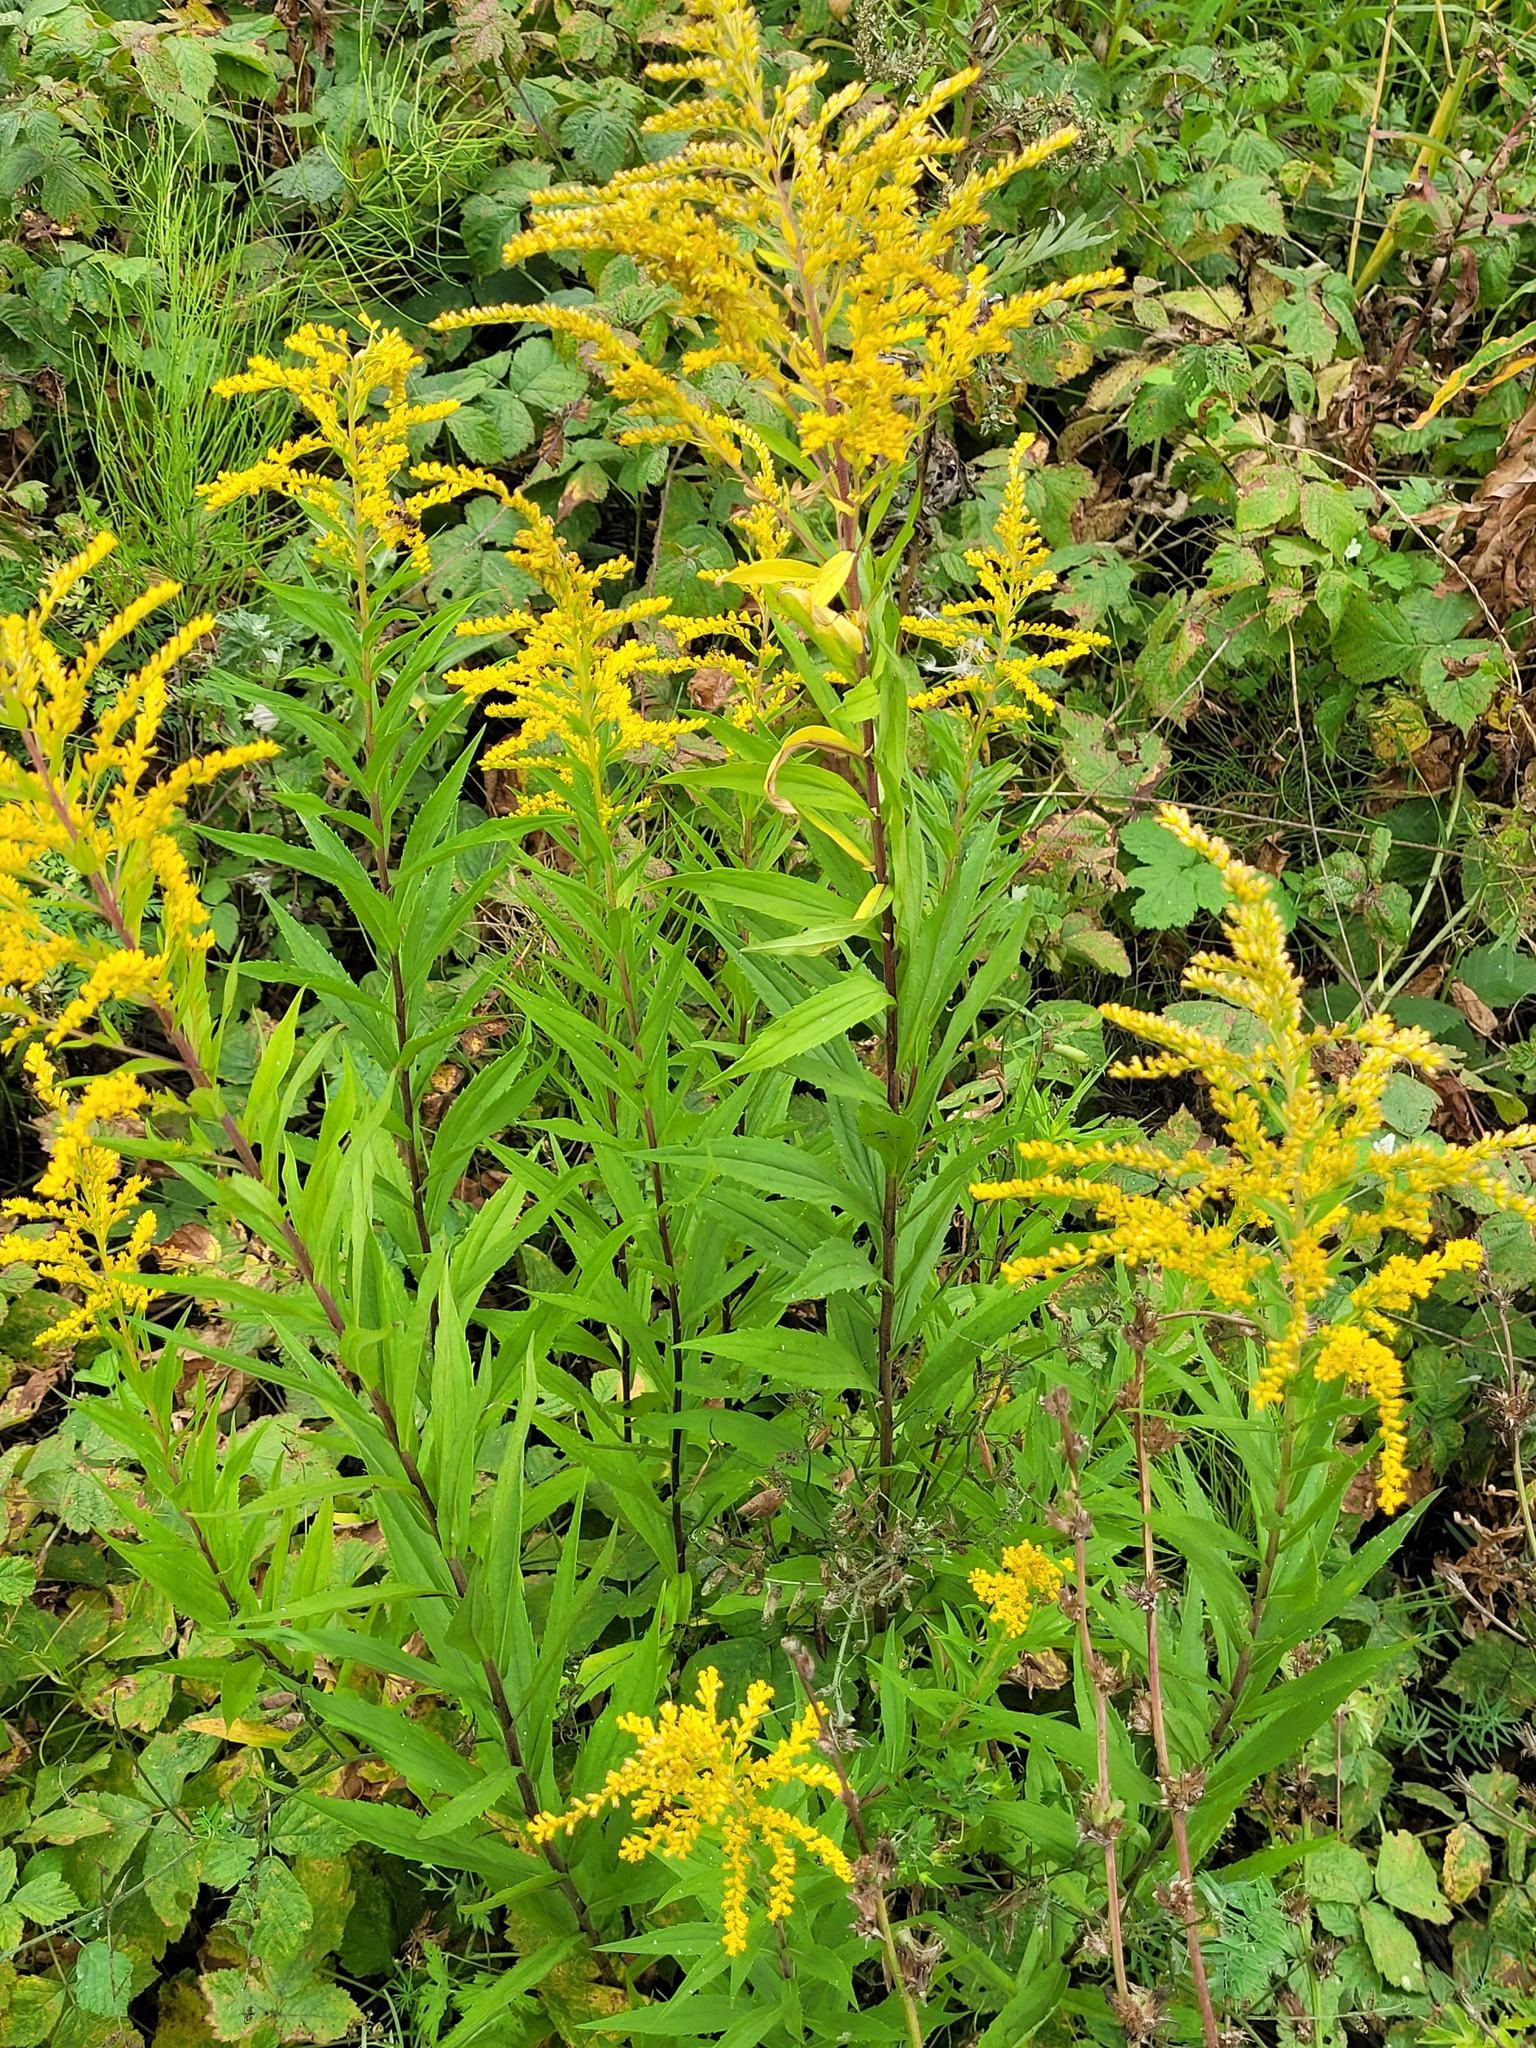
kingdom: Plantae
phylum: Tracheophyta
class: Magnoliopsida
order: Asterales
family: Asteraceae
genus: Solidago
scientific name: Solidago canadensis
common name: Canada goldenrod
